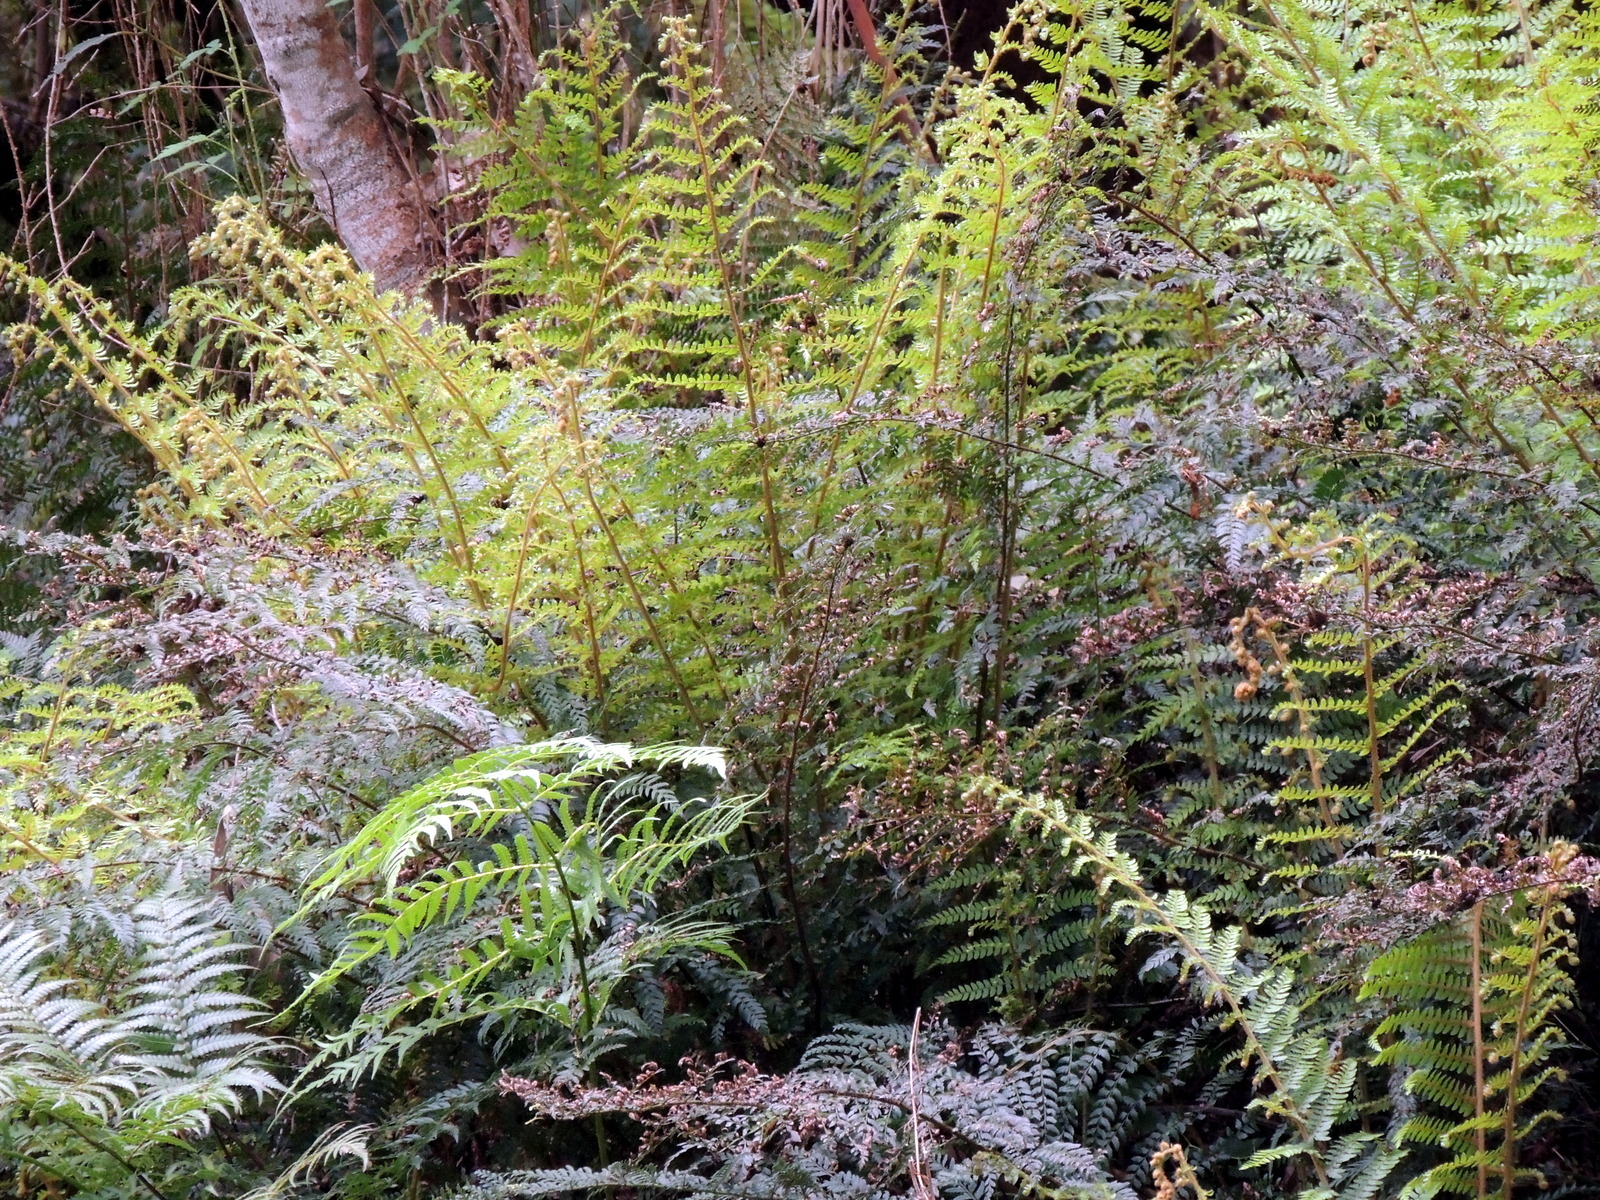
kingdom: Plantae
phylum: Tracheophyta
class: Polypodiopsida
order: Polypodiales
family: Dryopteridaceae
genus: Polystichum
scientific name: Polystichum proliferum
